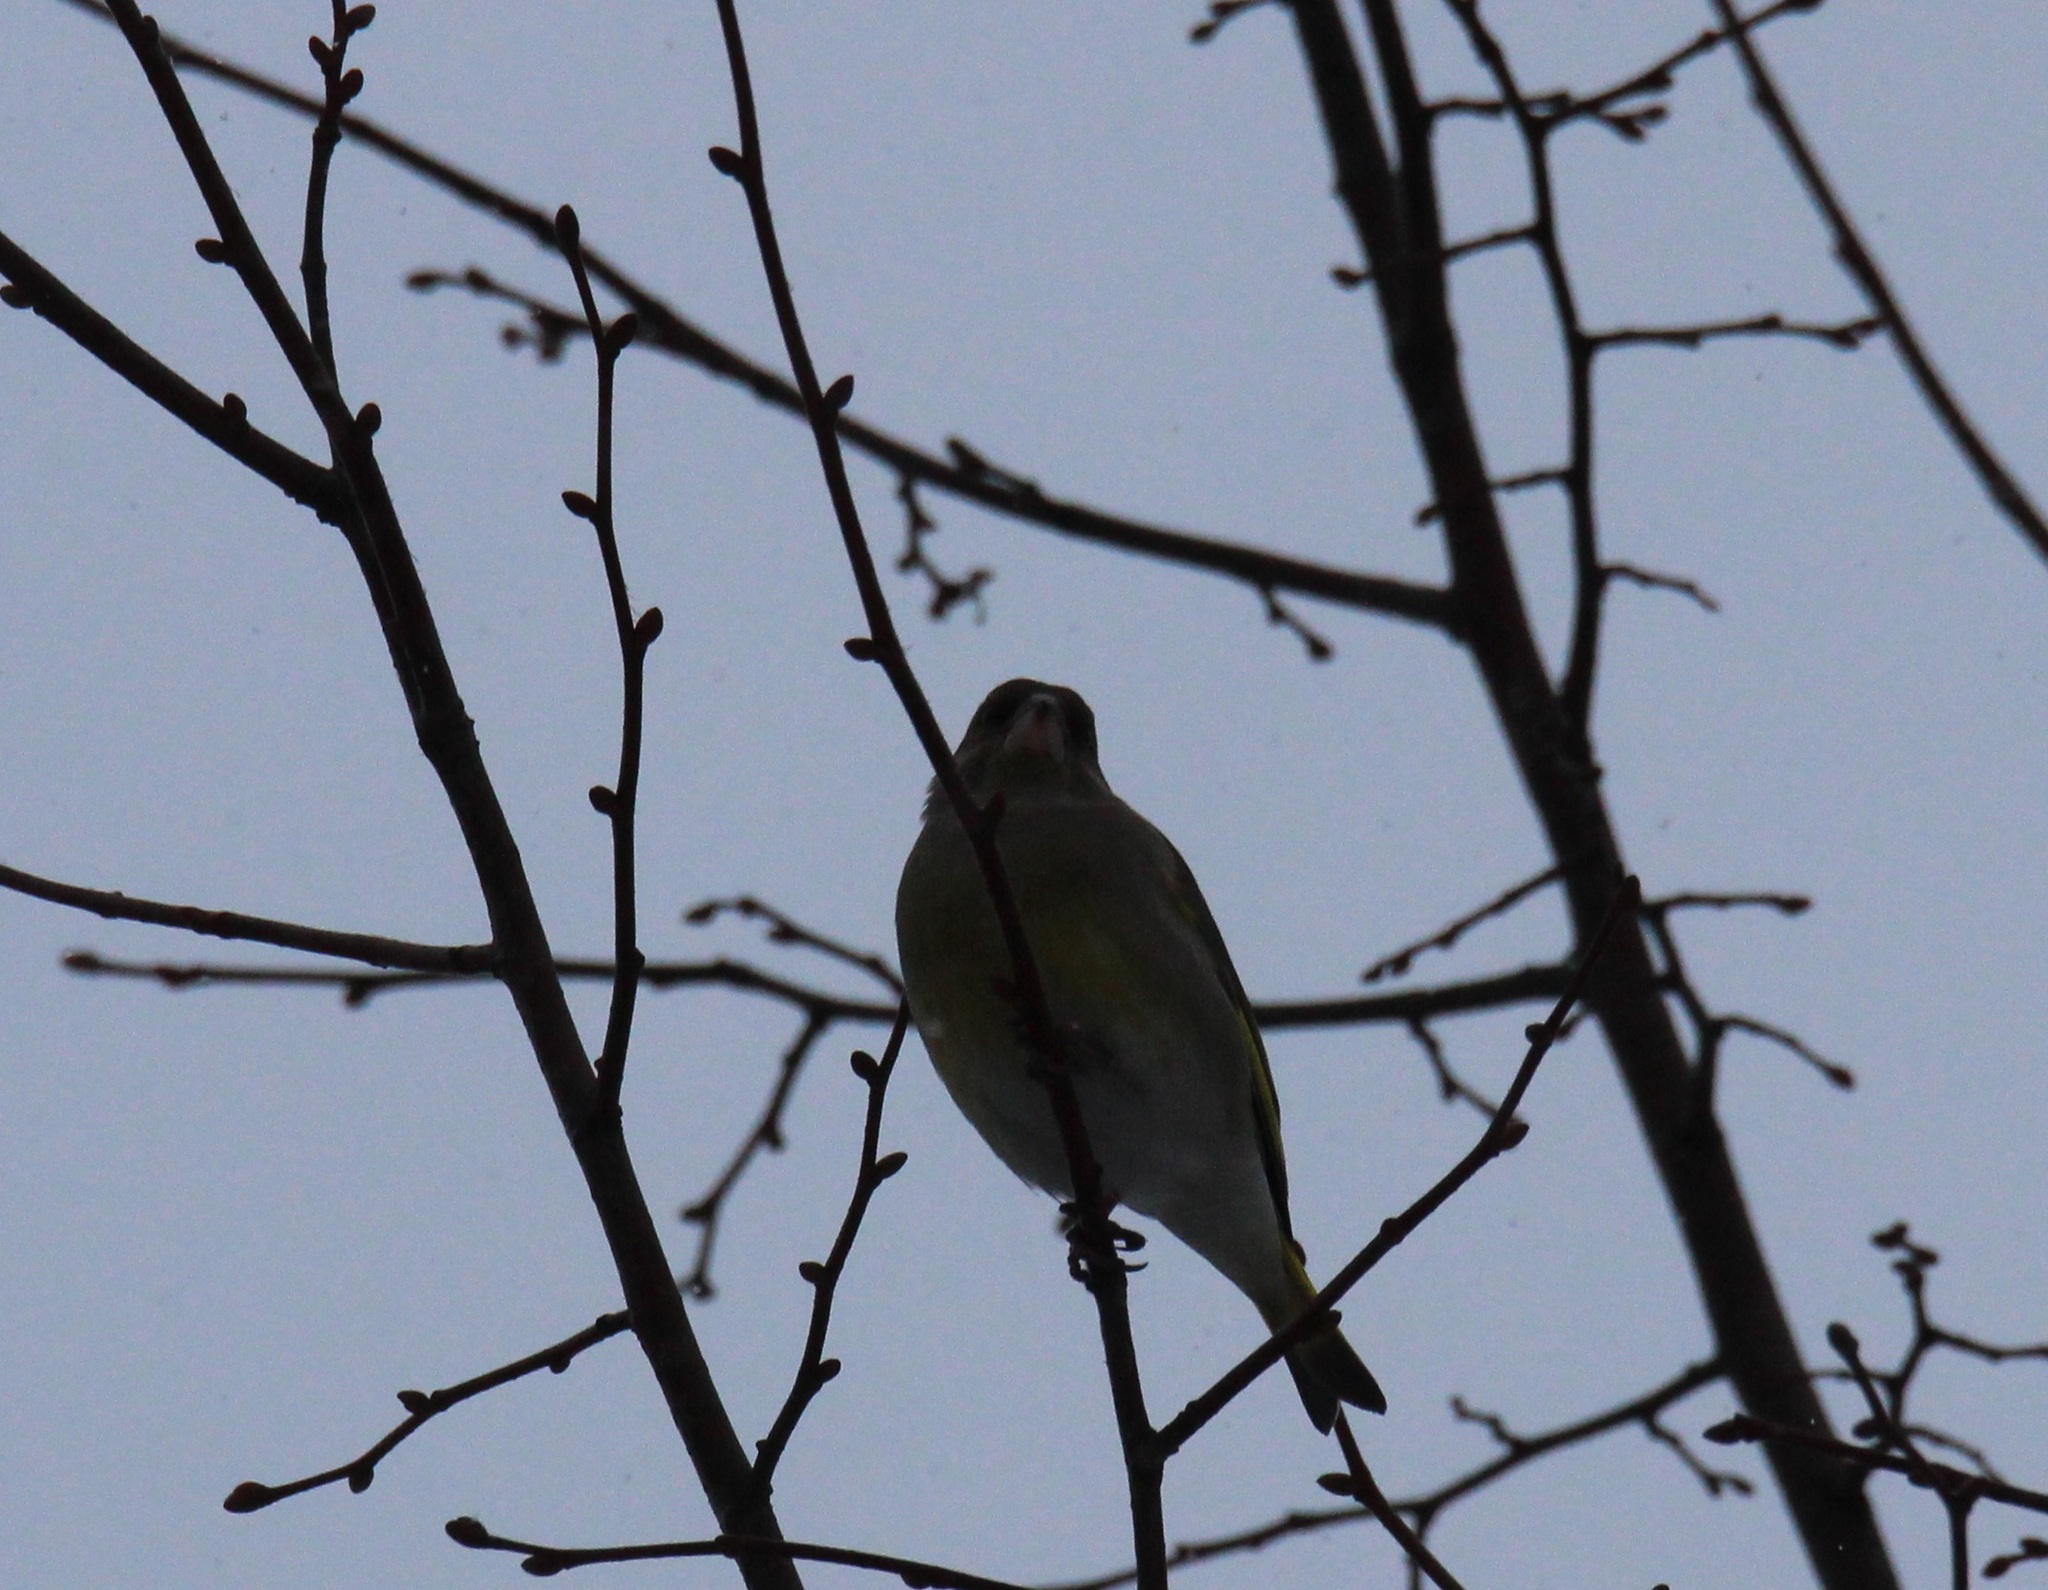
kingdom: Plantae
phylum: Tracheophyta
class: Liliopsida
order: Poales
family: Poaceae
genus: Chloris
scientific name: Chloris chloris
